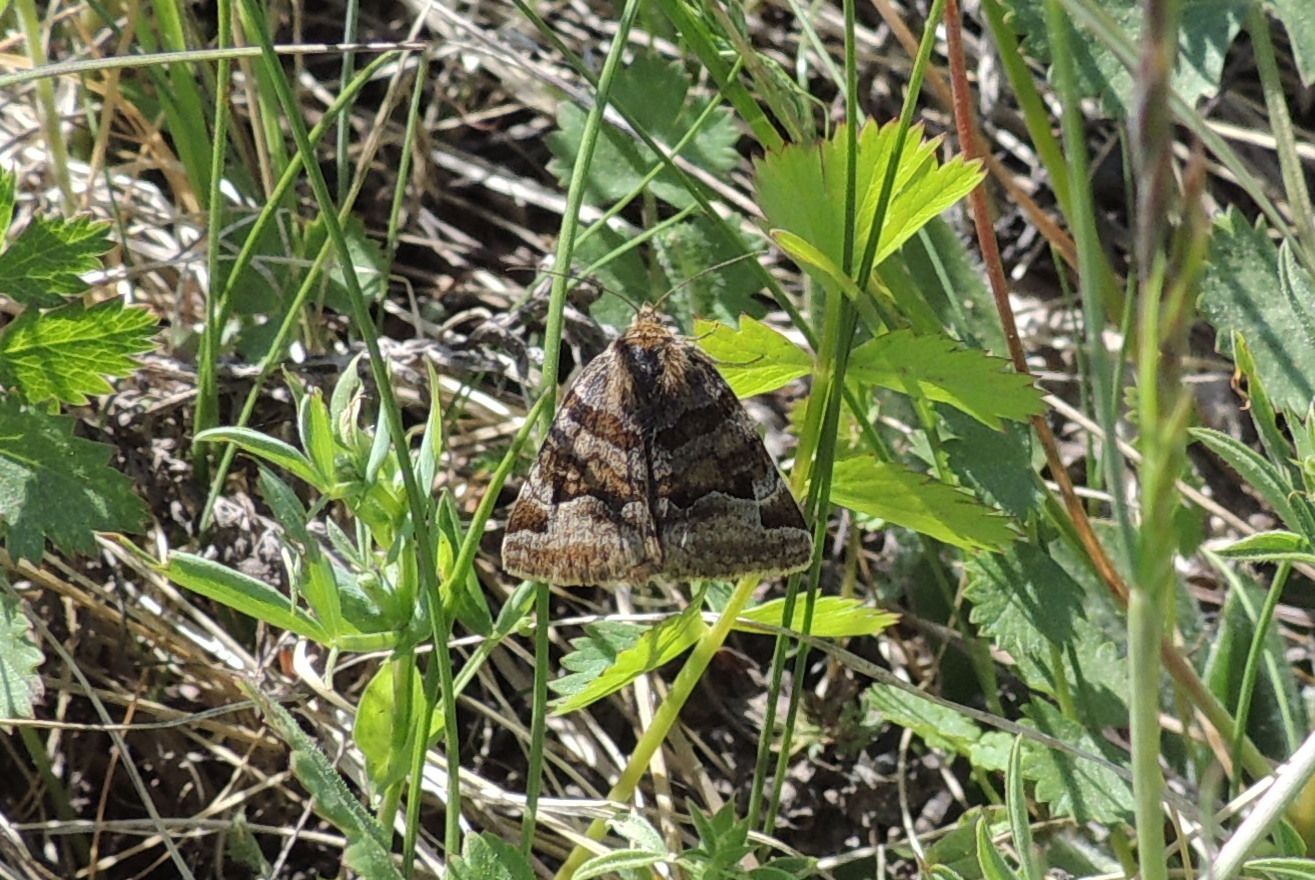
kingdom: Animalia
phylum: Arthropoda
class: Insecta
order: Lepidoptera
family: Erebidae
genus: Euclidia
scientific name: Euclidia glyphica
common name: Burnet companion
